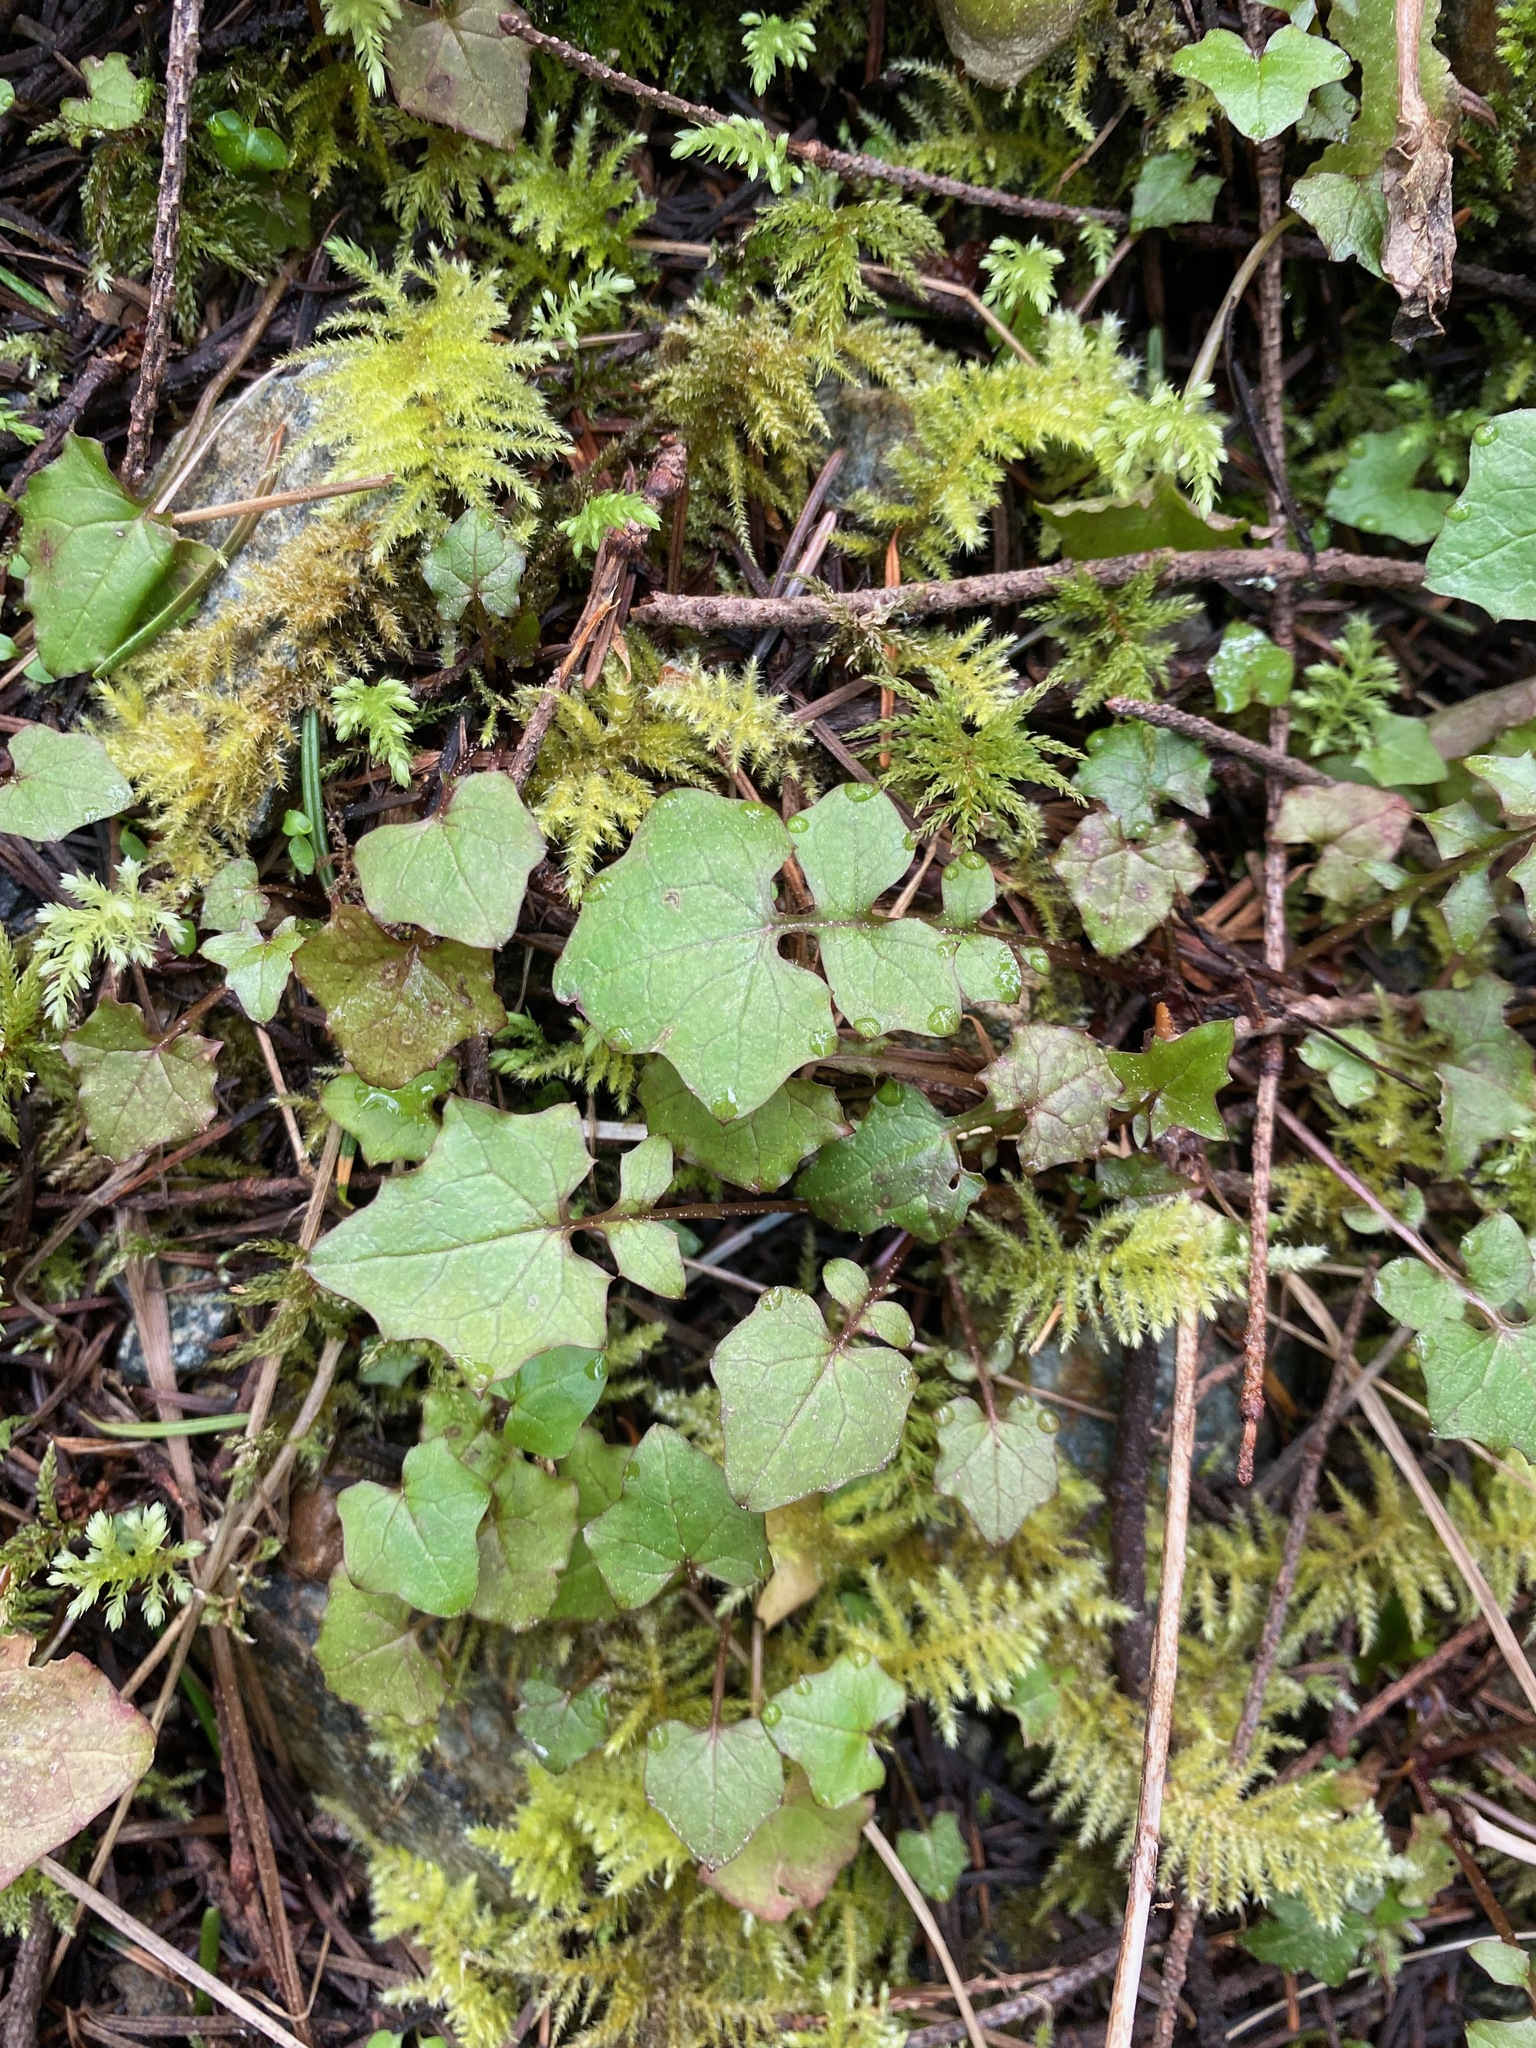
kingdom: Plantae
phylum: Tracheophyta
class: Magnoliopsida
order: Asterales
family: Asteraceae
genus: Mycelis
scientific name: Mycelis muralis
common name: Wall lettuce
